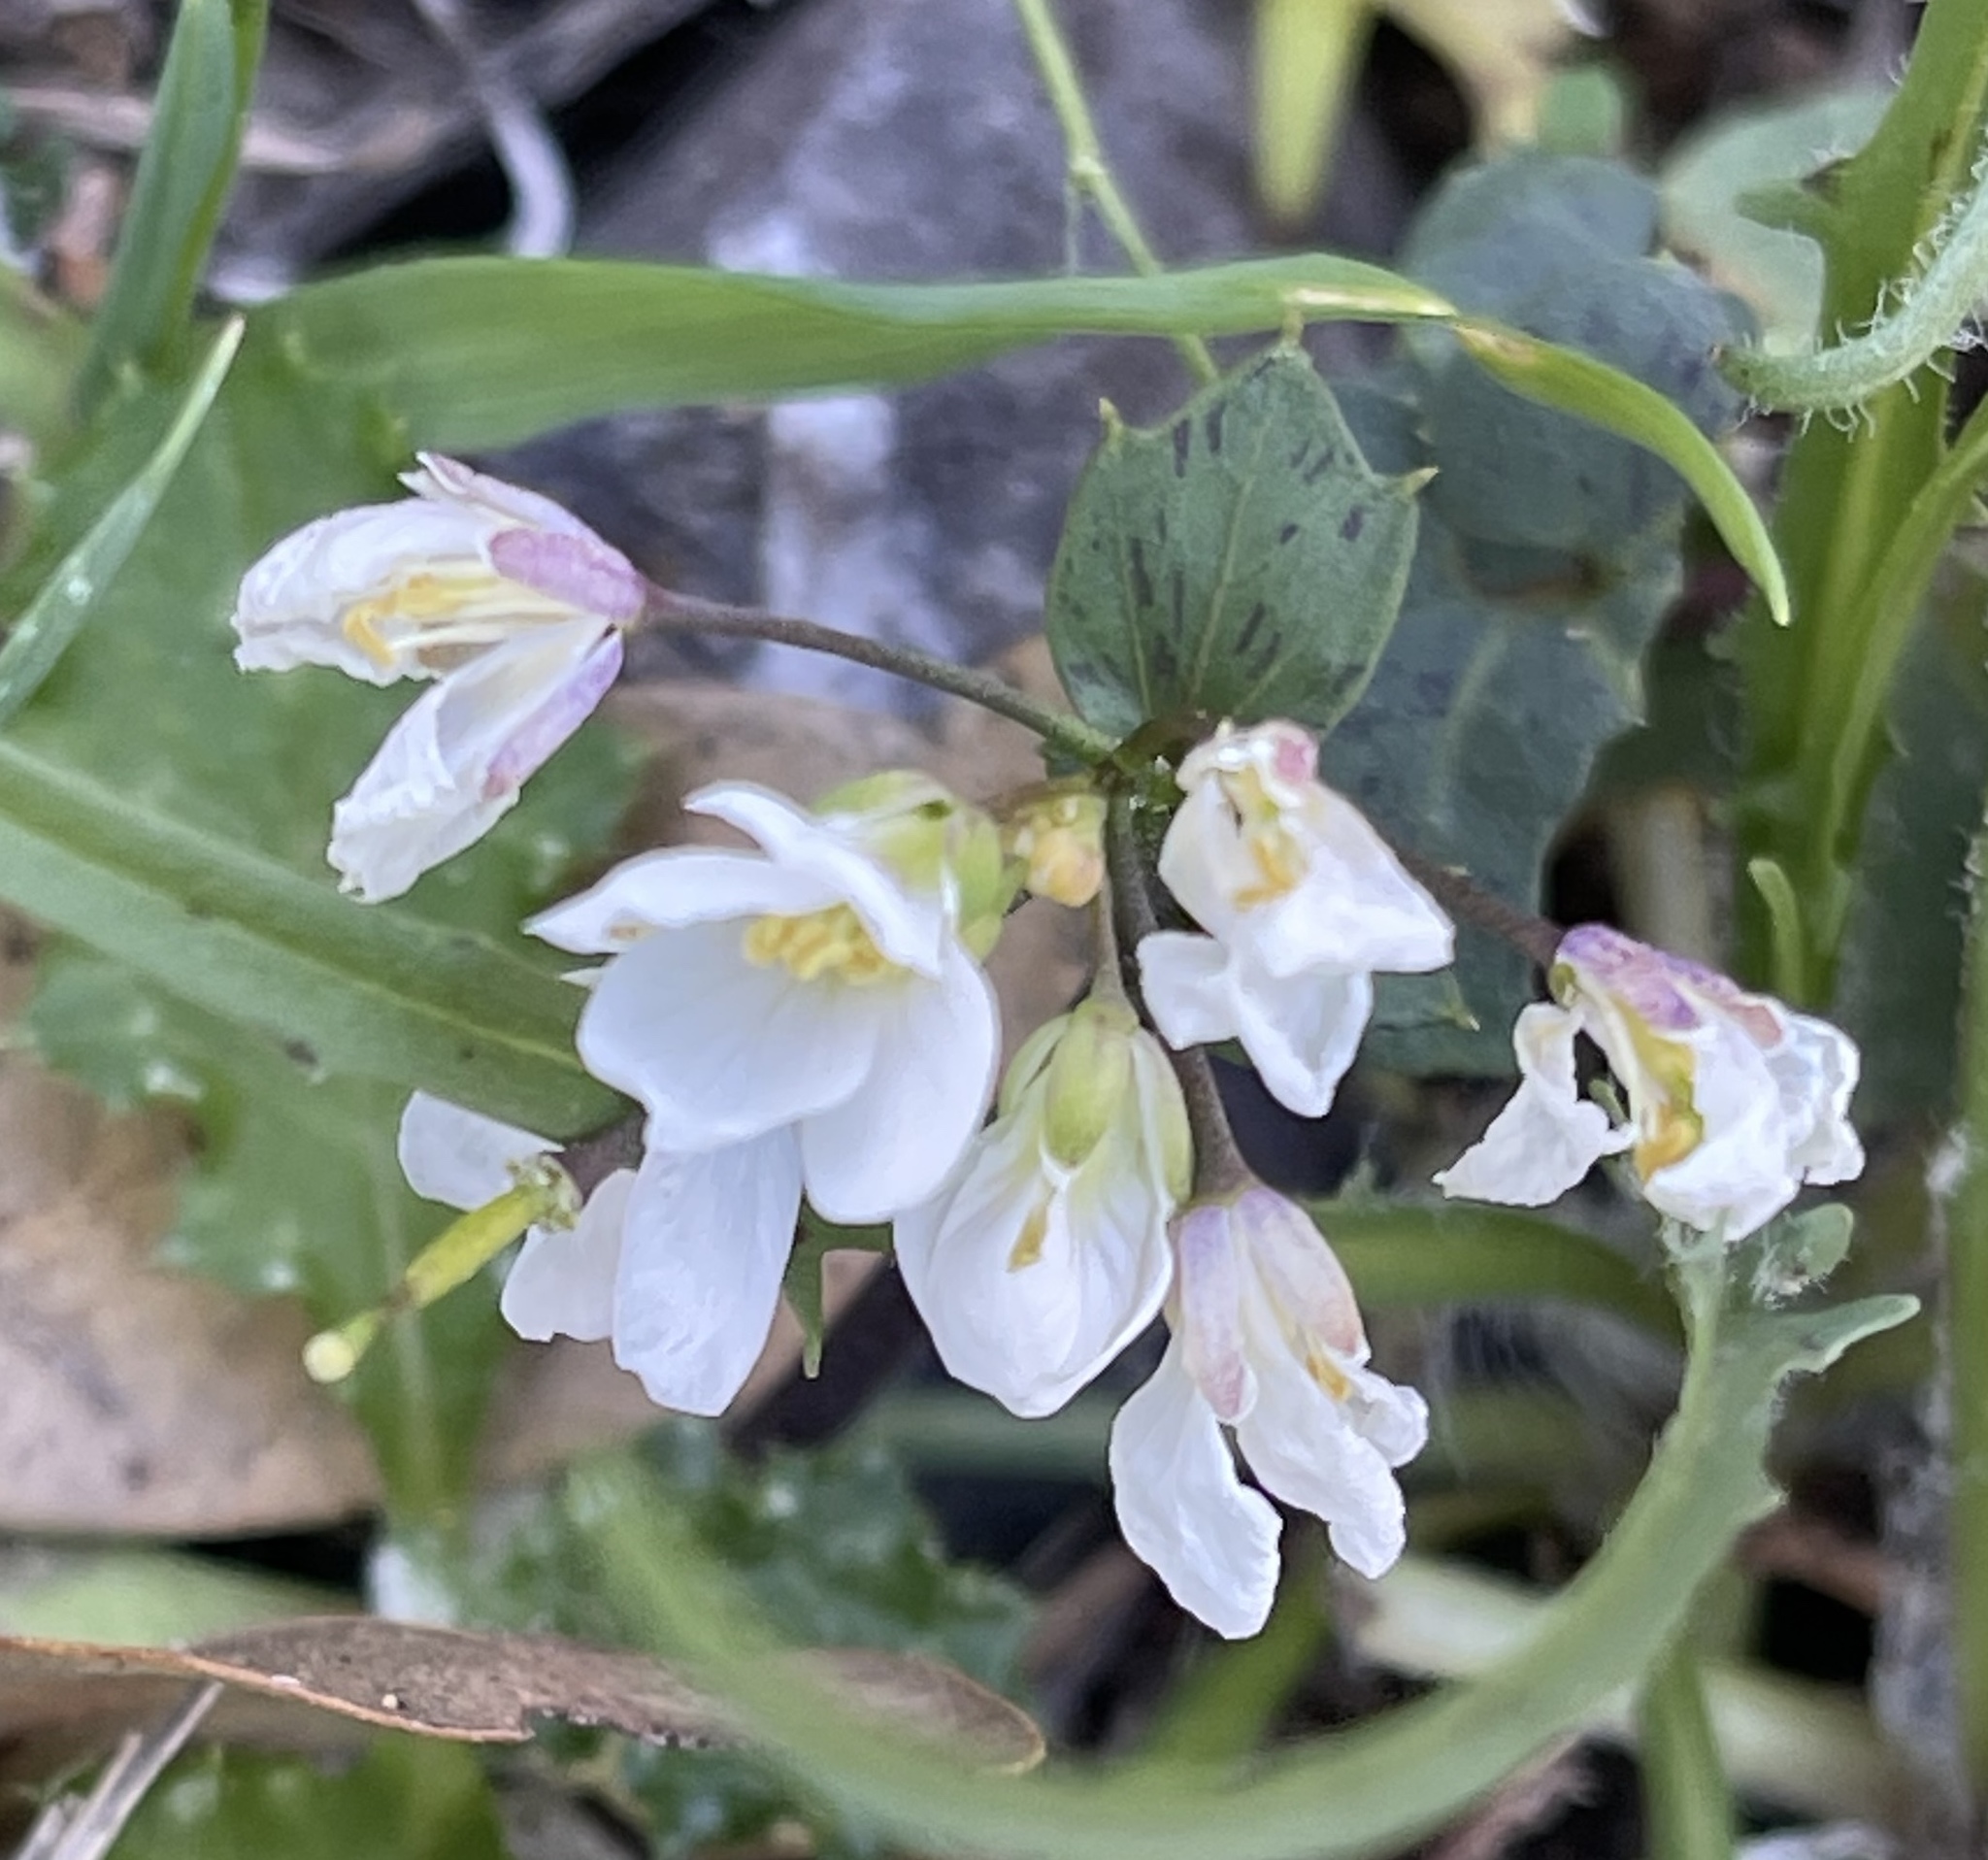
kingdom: Plantae
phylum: Tracheophyta
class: Magnoliopsida
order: Brassicales
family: Brassicaceae
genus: Cardamine
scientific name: Cardamine californica
